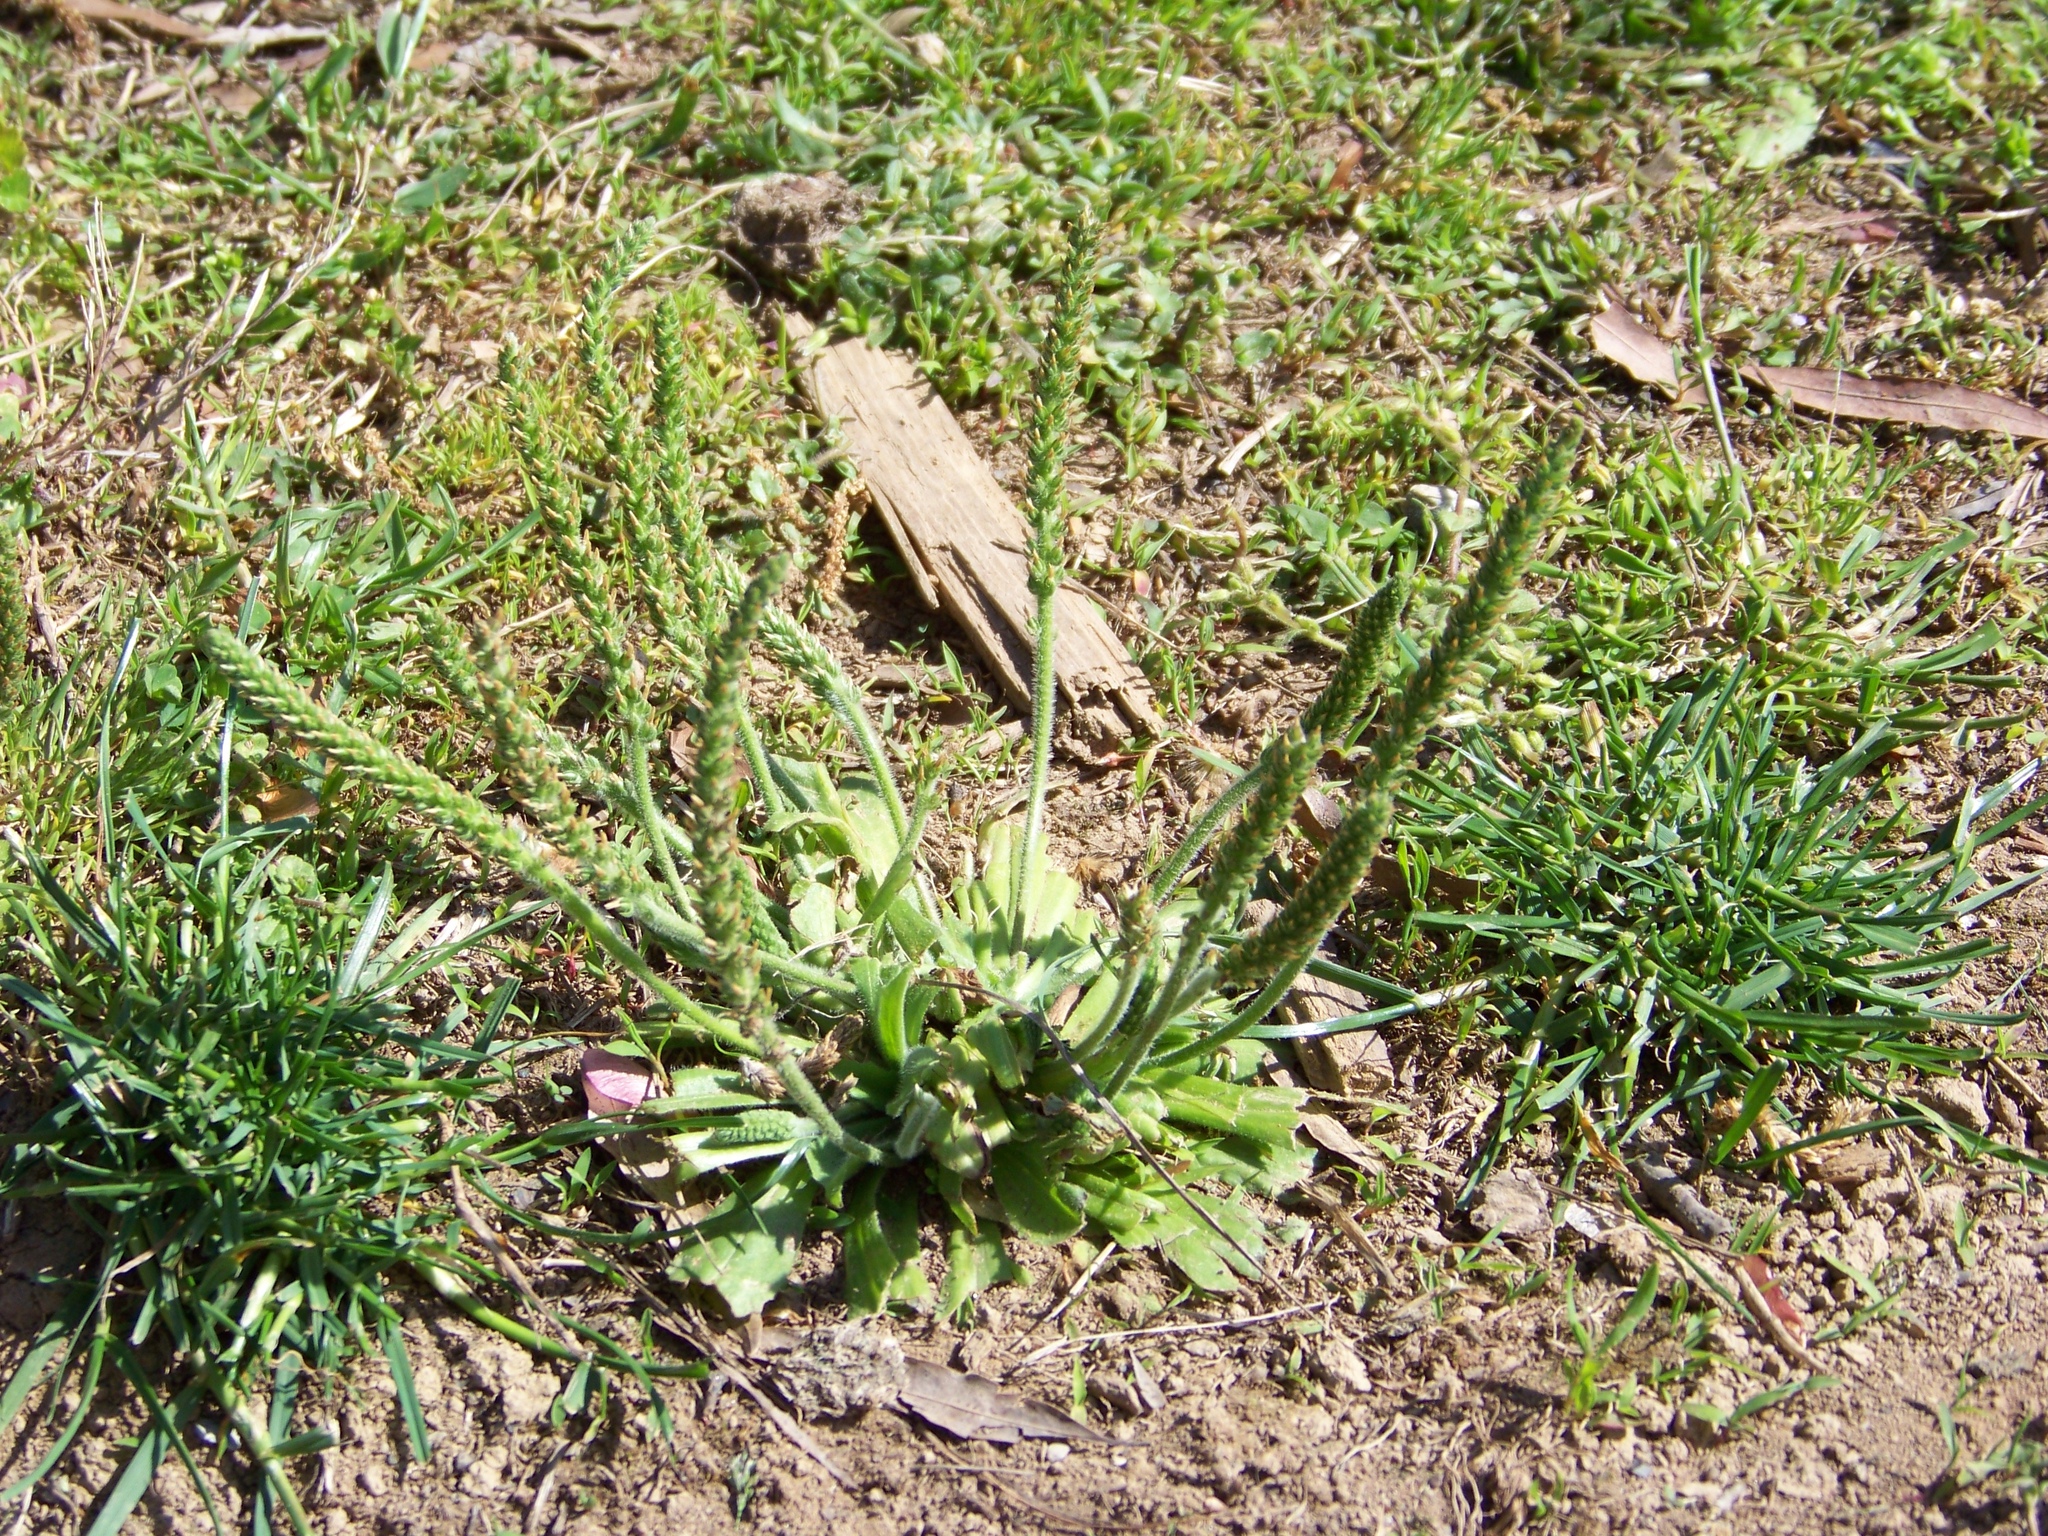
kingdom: Plantae
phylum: Tracheophyta
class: Magnoliopsida
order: Lamiales
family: Plantaginaceae
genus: Plantago
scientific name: Plantago virginica
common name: Hoary plantain
